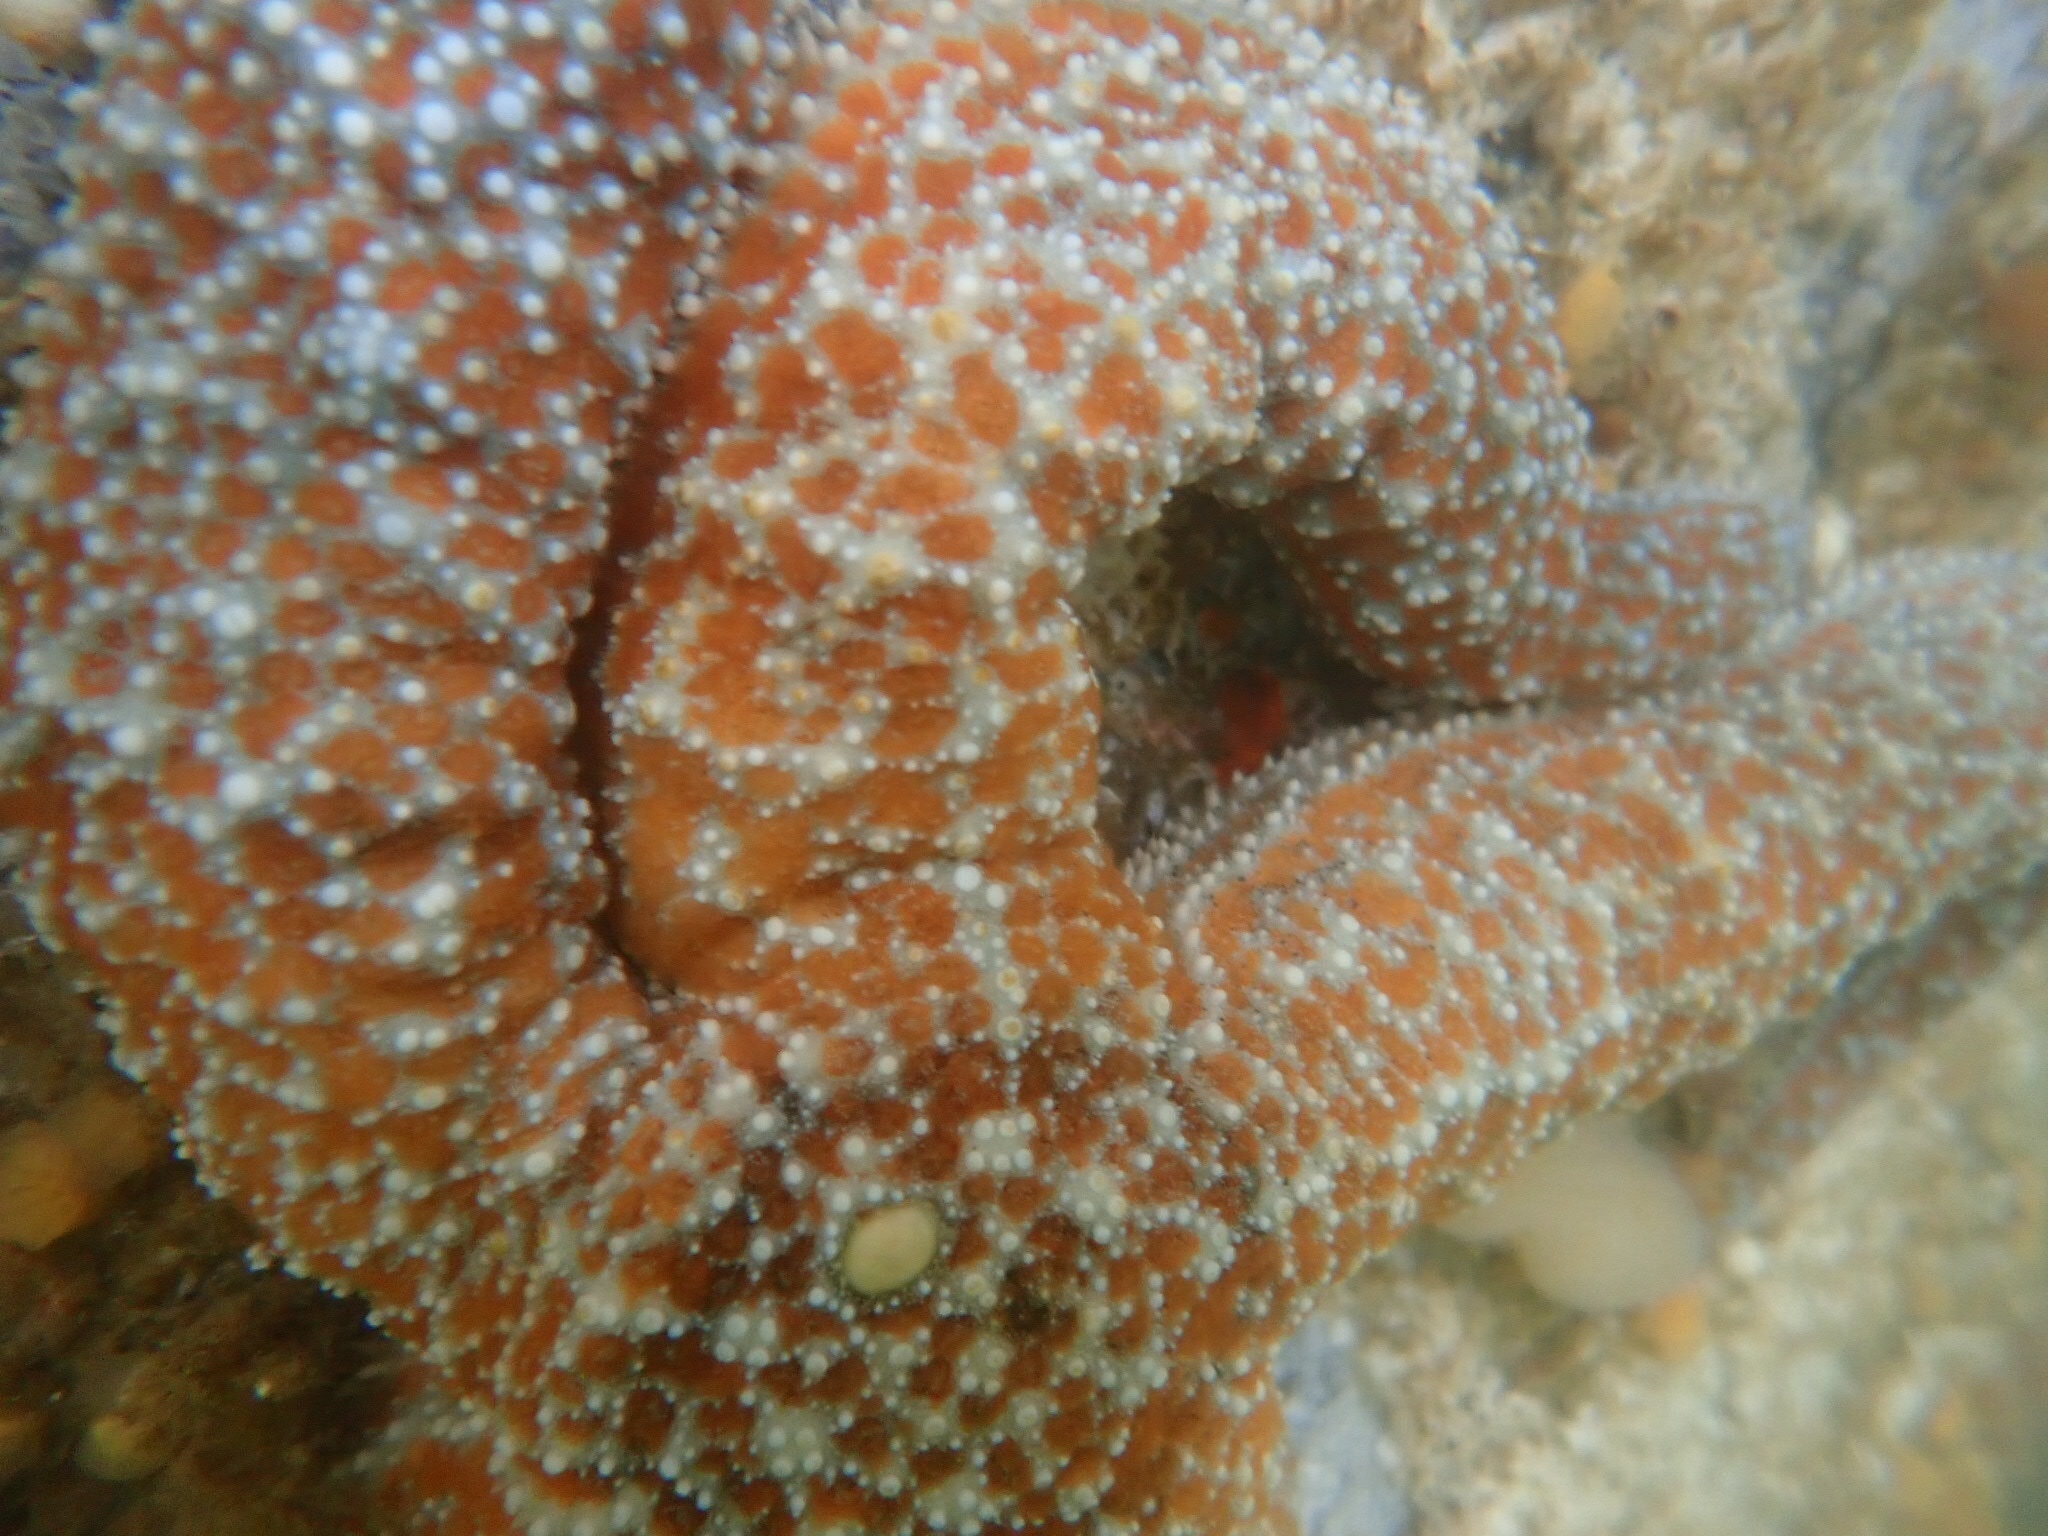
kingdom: Animalia
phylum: Echinodermata
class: Asteroidea
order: Forcipulatida
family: Asteriidae
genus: Evasterias
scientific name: Evasterias troschelii
